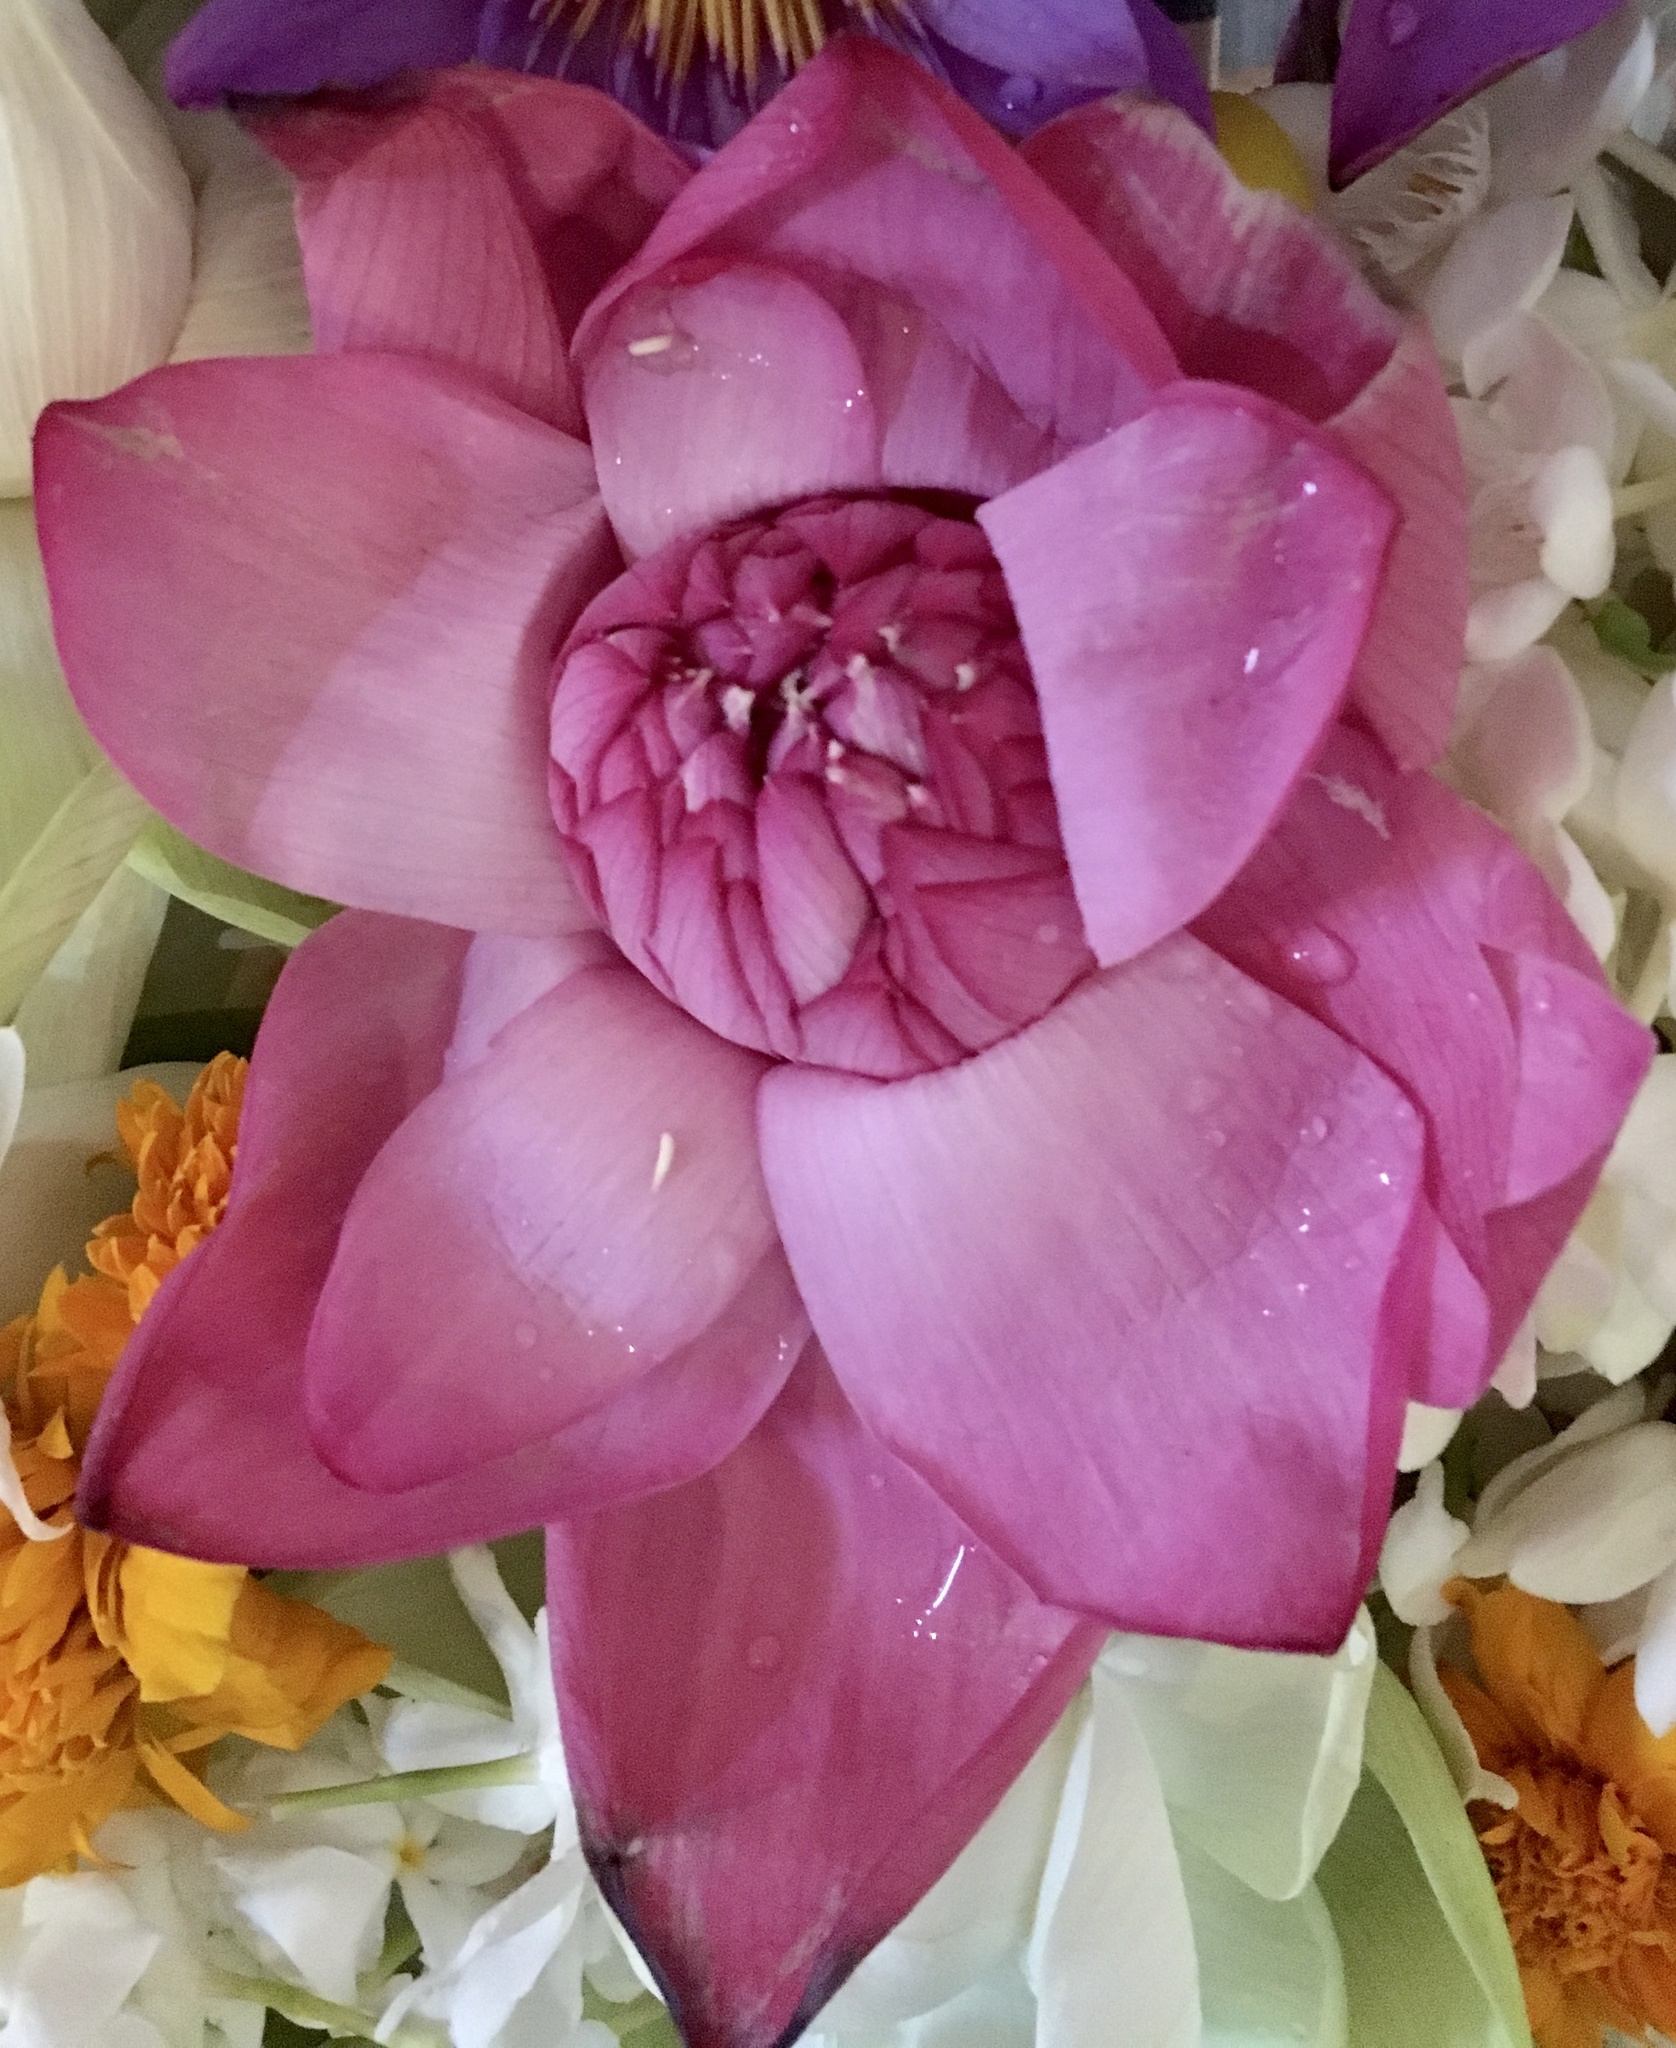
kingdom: Plantae
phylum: Tracheophyta
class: Magnoliopsida
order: Proteales
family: Nelumbonaceae
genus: Nelumbo
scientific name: Nelumbo nucifera
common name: Sacred lotus
